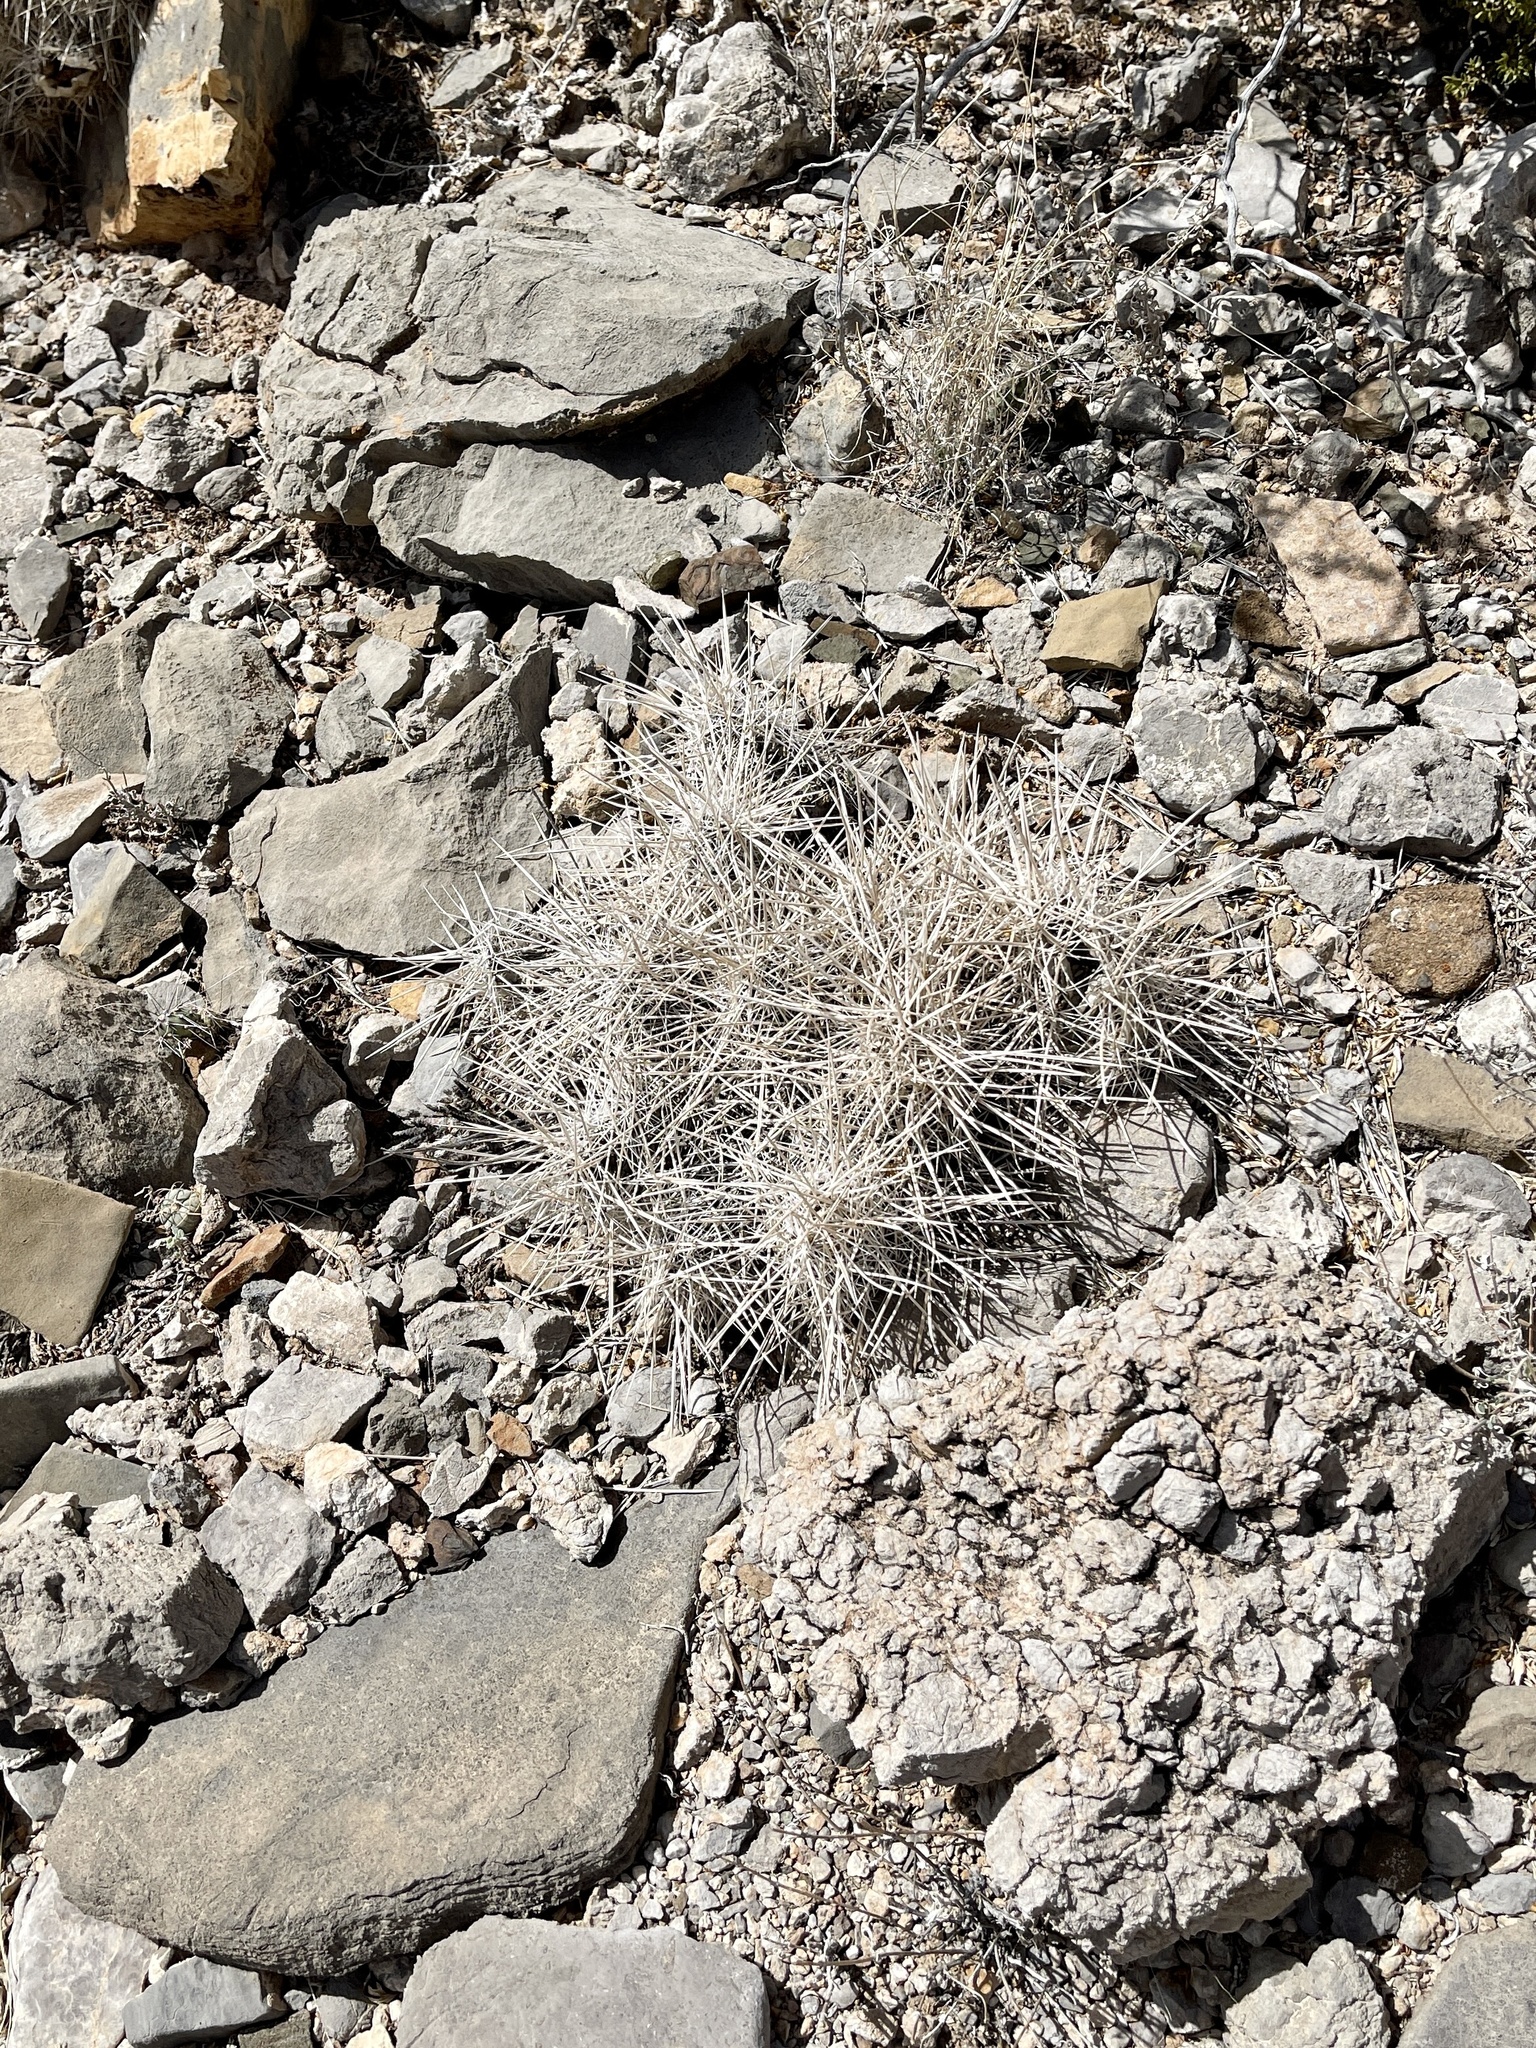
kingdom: Plantae
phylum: Tracheophyta
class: Magnoliopsida
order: Caryophyllales
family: Cactaceae
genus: Echinocereus
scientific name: Echinocereus stramineus
